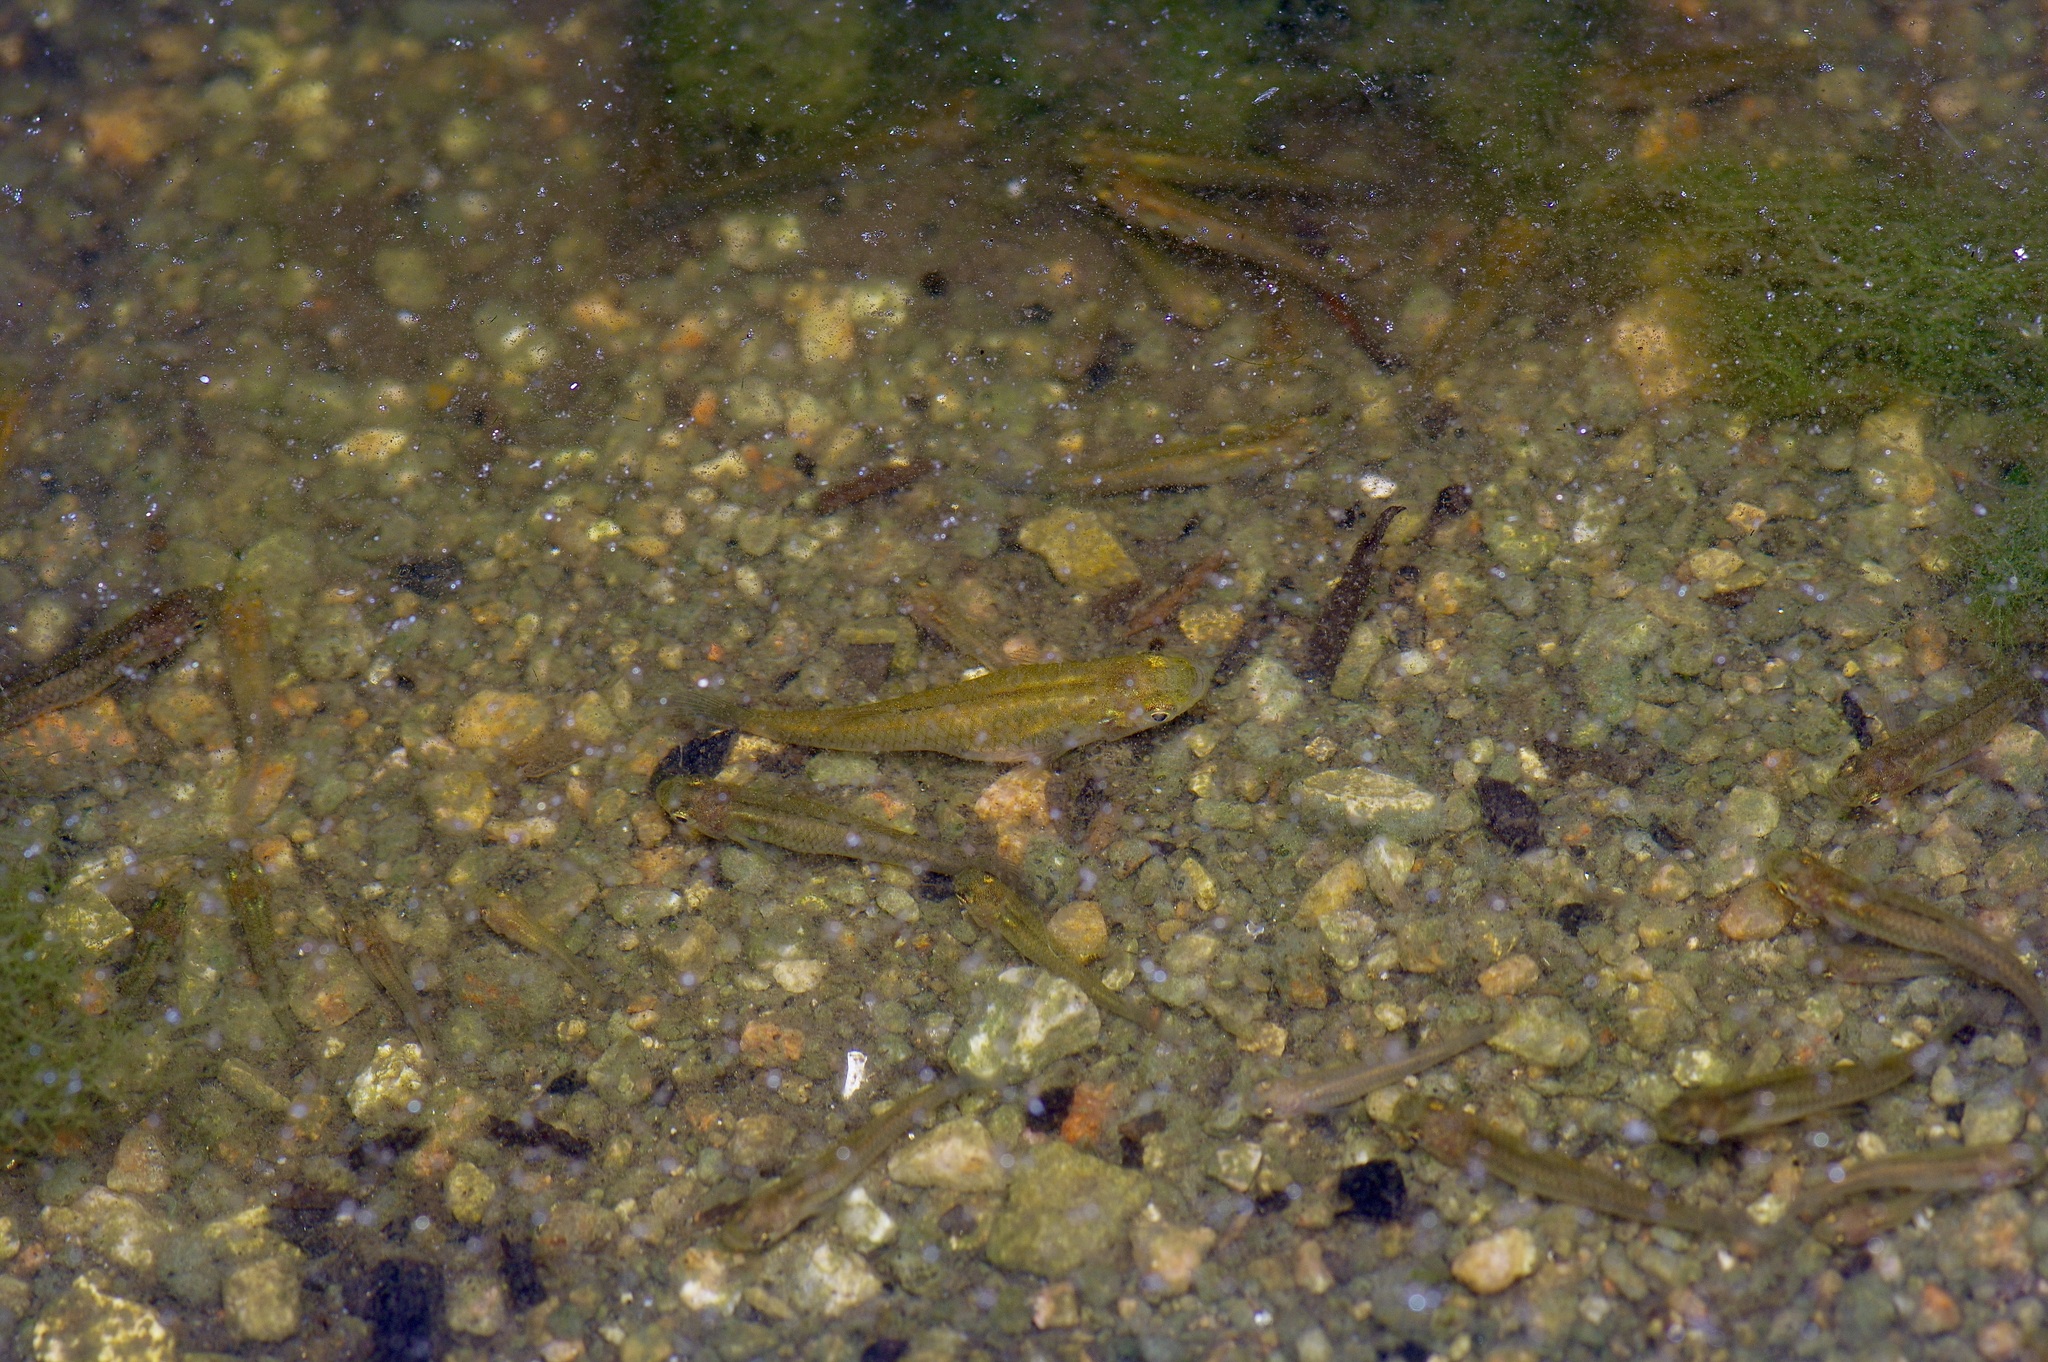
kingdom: Animalia
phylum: Chordata
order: Cyprinodontiformes
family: Poeciliidae
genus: Gambusia
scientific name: Gambusia affinis
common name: Mosquitofish
